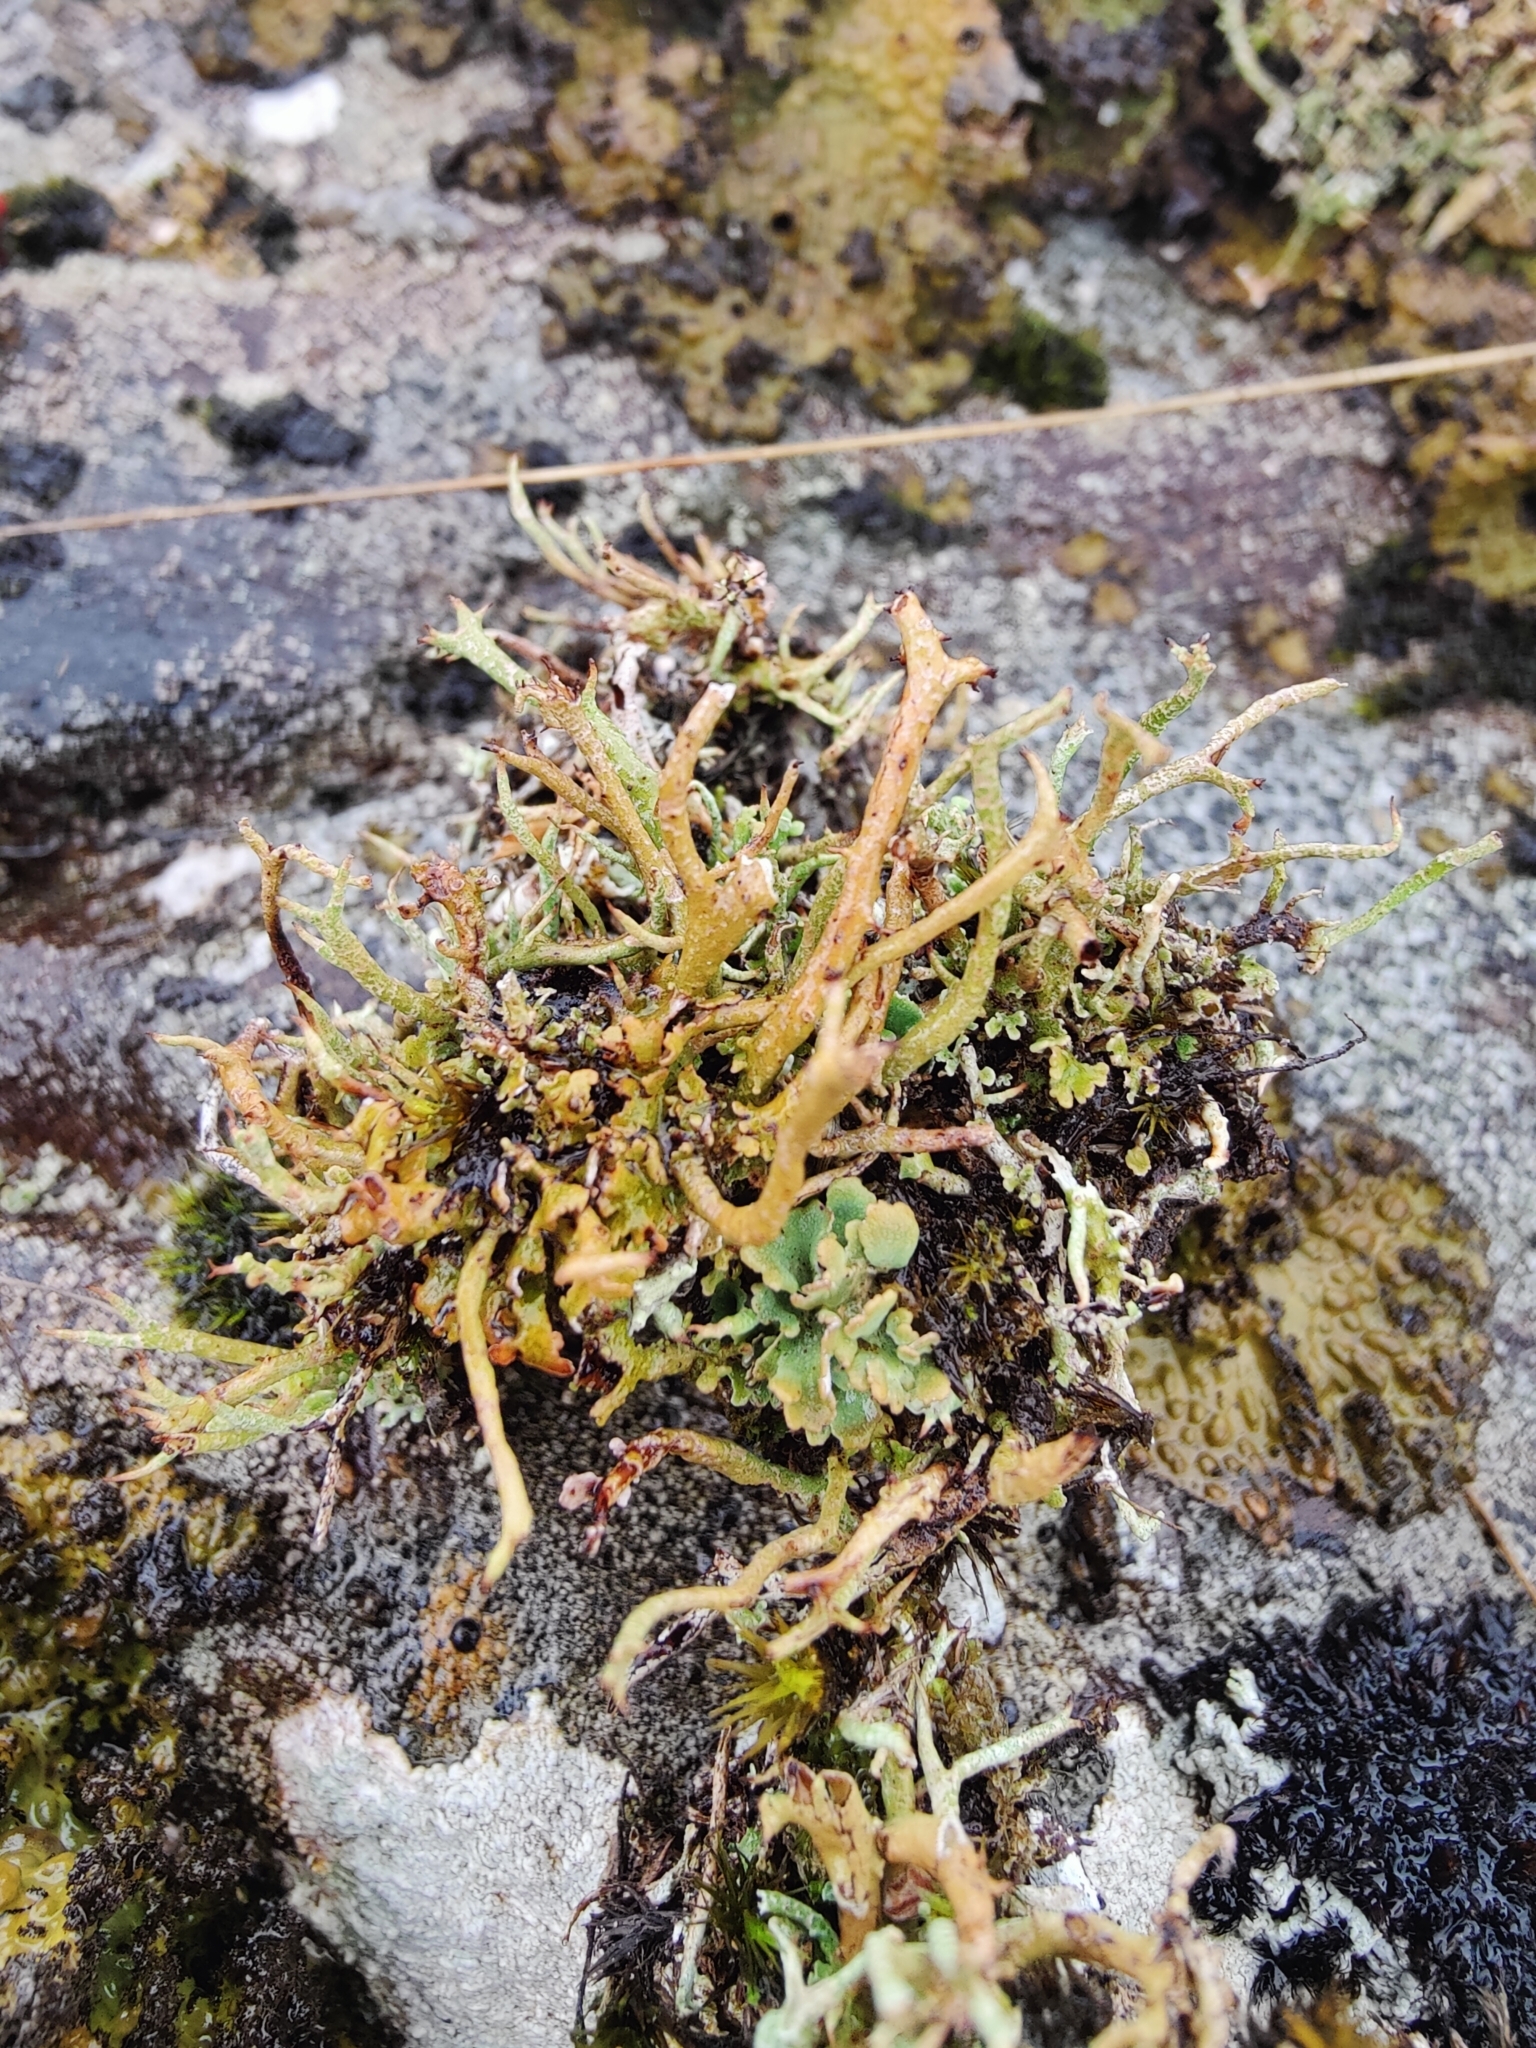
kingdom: Fungi
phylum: Ascomycota
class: Lecanoromycetes
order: Lecanorales
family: Cladoniaceae
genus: Cladonia
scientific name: Cladonia crispata
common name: Organ-pipe lichen
